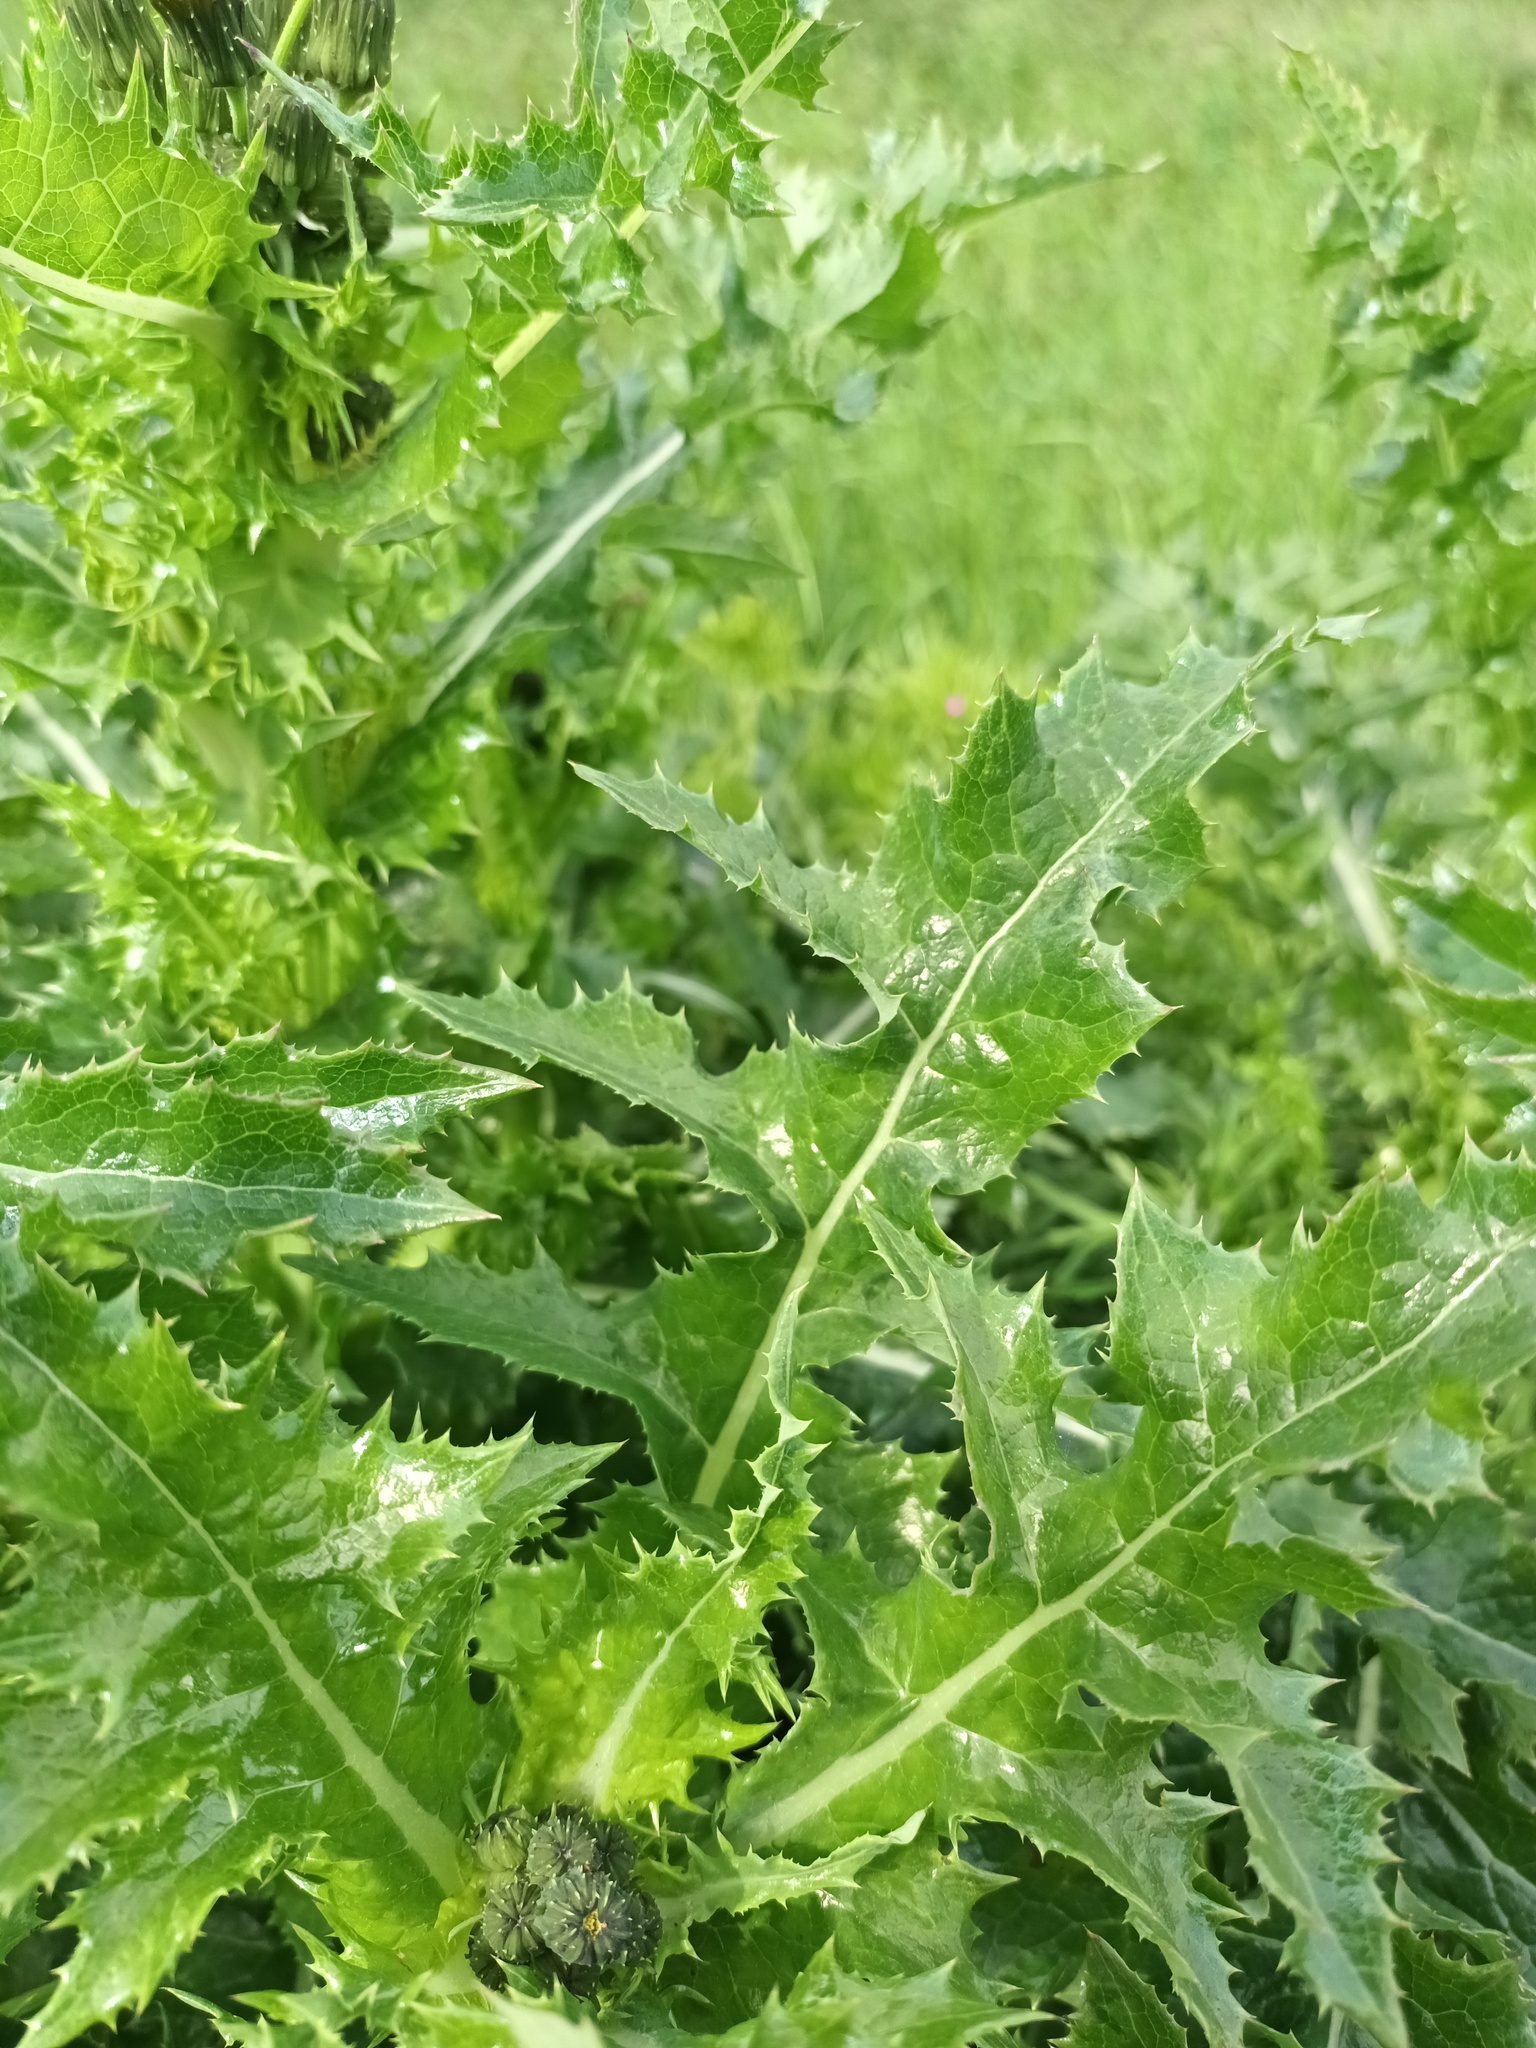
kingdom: Plantae
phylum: Tracheophyta
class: Magnoliopsida
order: Asterales
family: Asteraceae
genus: Sonchus
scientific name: Sonchus asper
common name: Prickly sow-thistle
